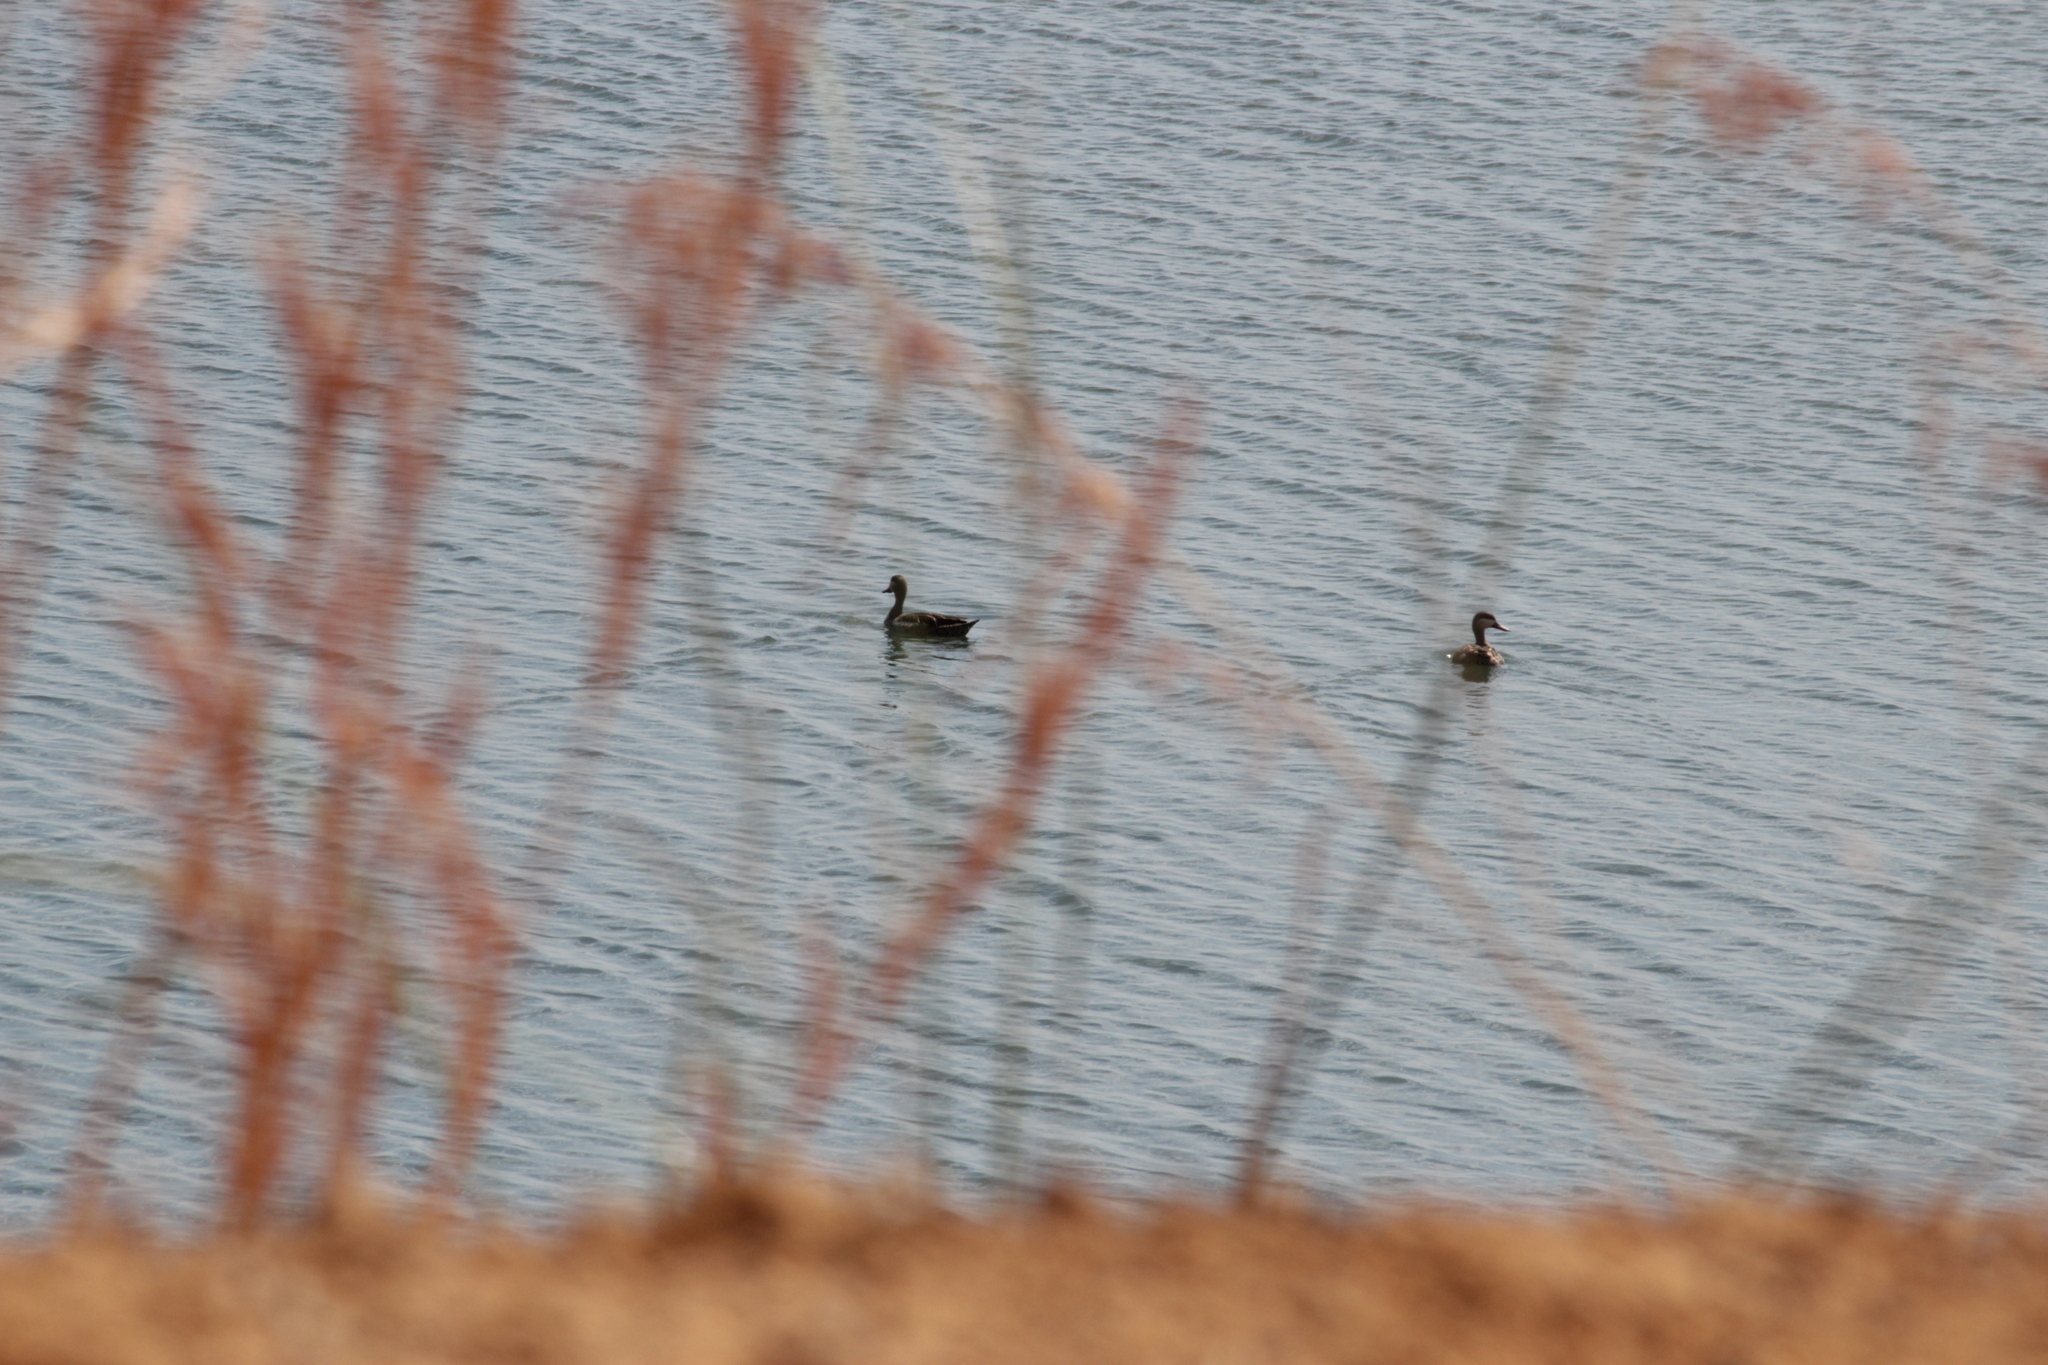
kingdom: Animalia
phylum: Chordata
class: Aves
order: Anseriformes
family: Anatidae
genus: Anas
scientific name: Anas erythrorhyncha
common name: Red-billed teal
